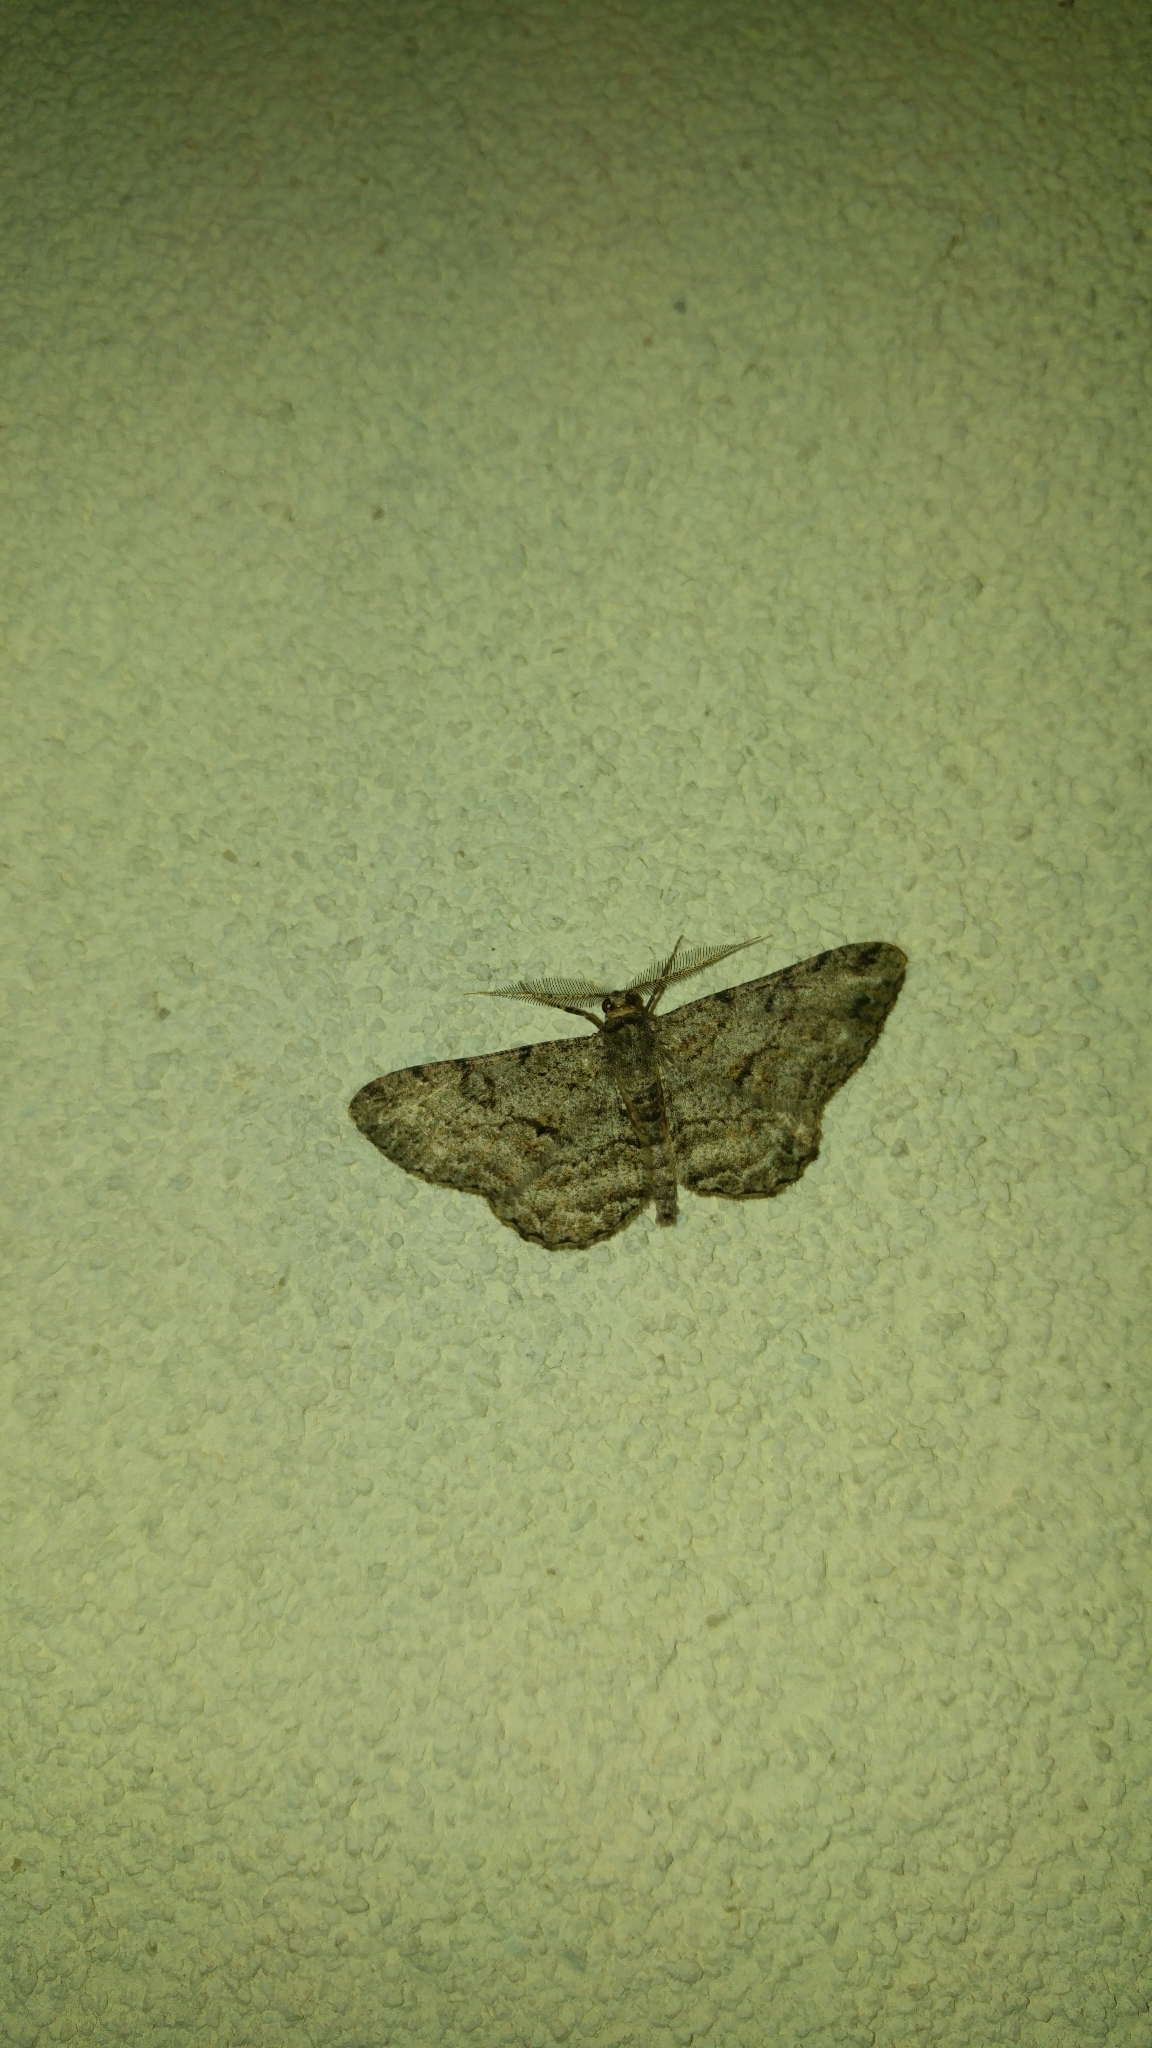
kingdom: Animalia
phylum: Arthropoda
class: Insecta
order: Lepidoptera
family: Geometridae
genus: Peribatodes
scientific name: Peribatodes rhomboidaria
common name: Willow beauty
